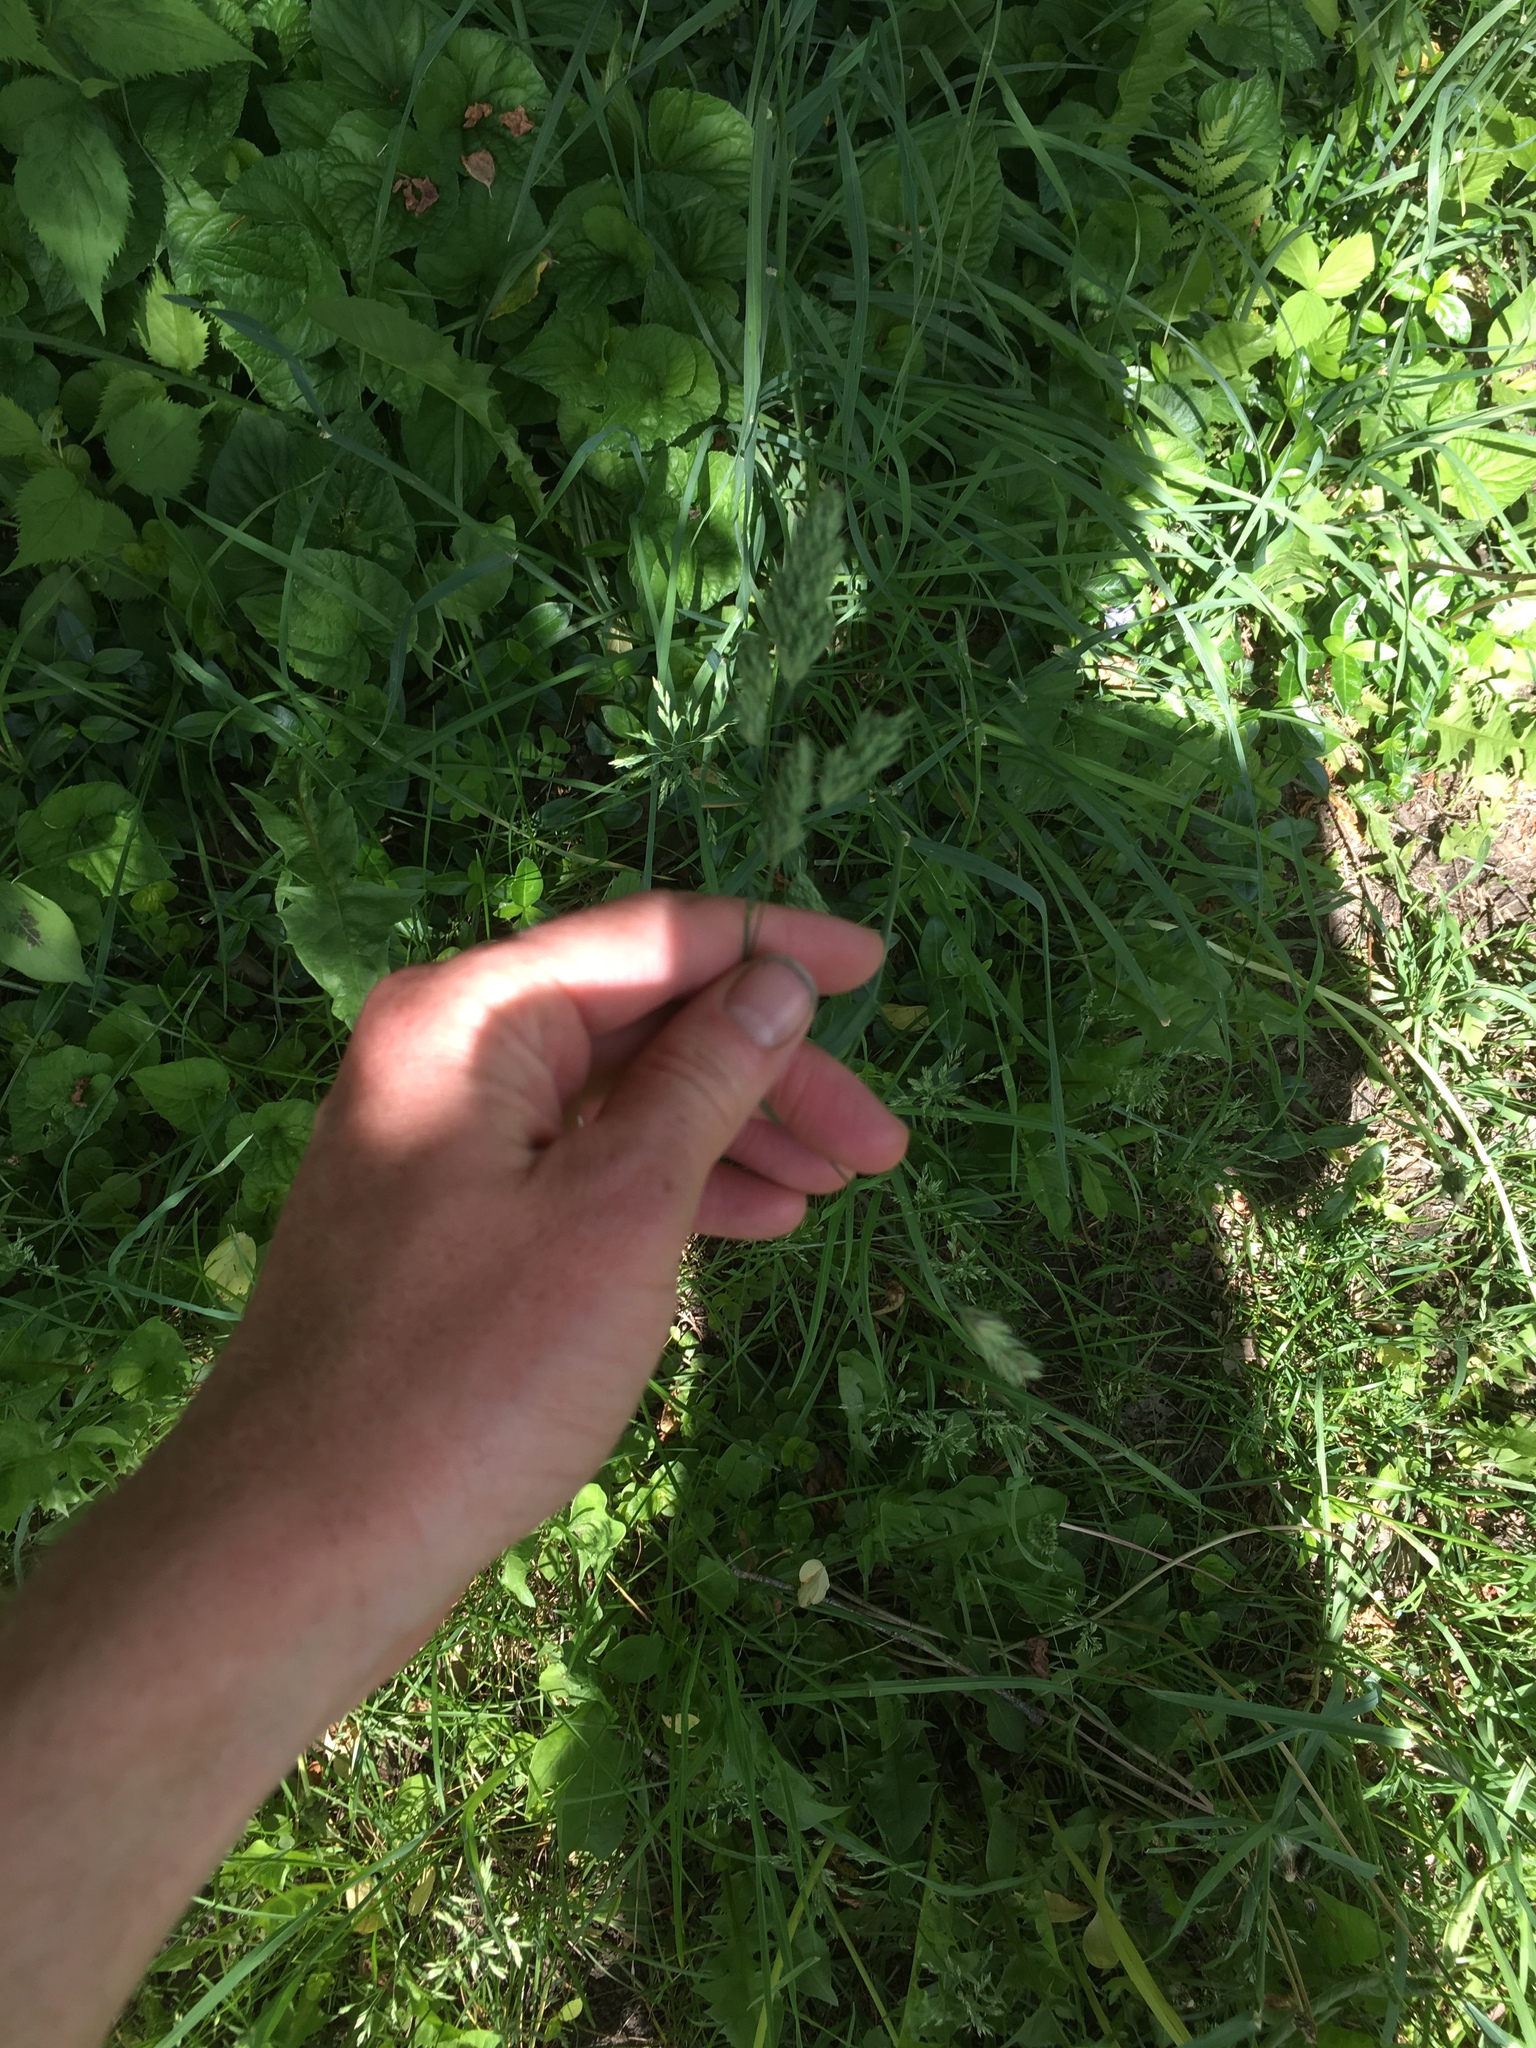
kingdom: Plantae
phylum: Tracheophyta
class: Liliopsida
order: Poales
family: Poaceae
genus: Dactylis
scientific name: Dactylis glomerata
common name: Orchardgrass
